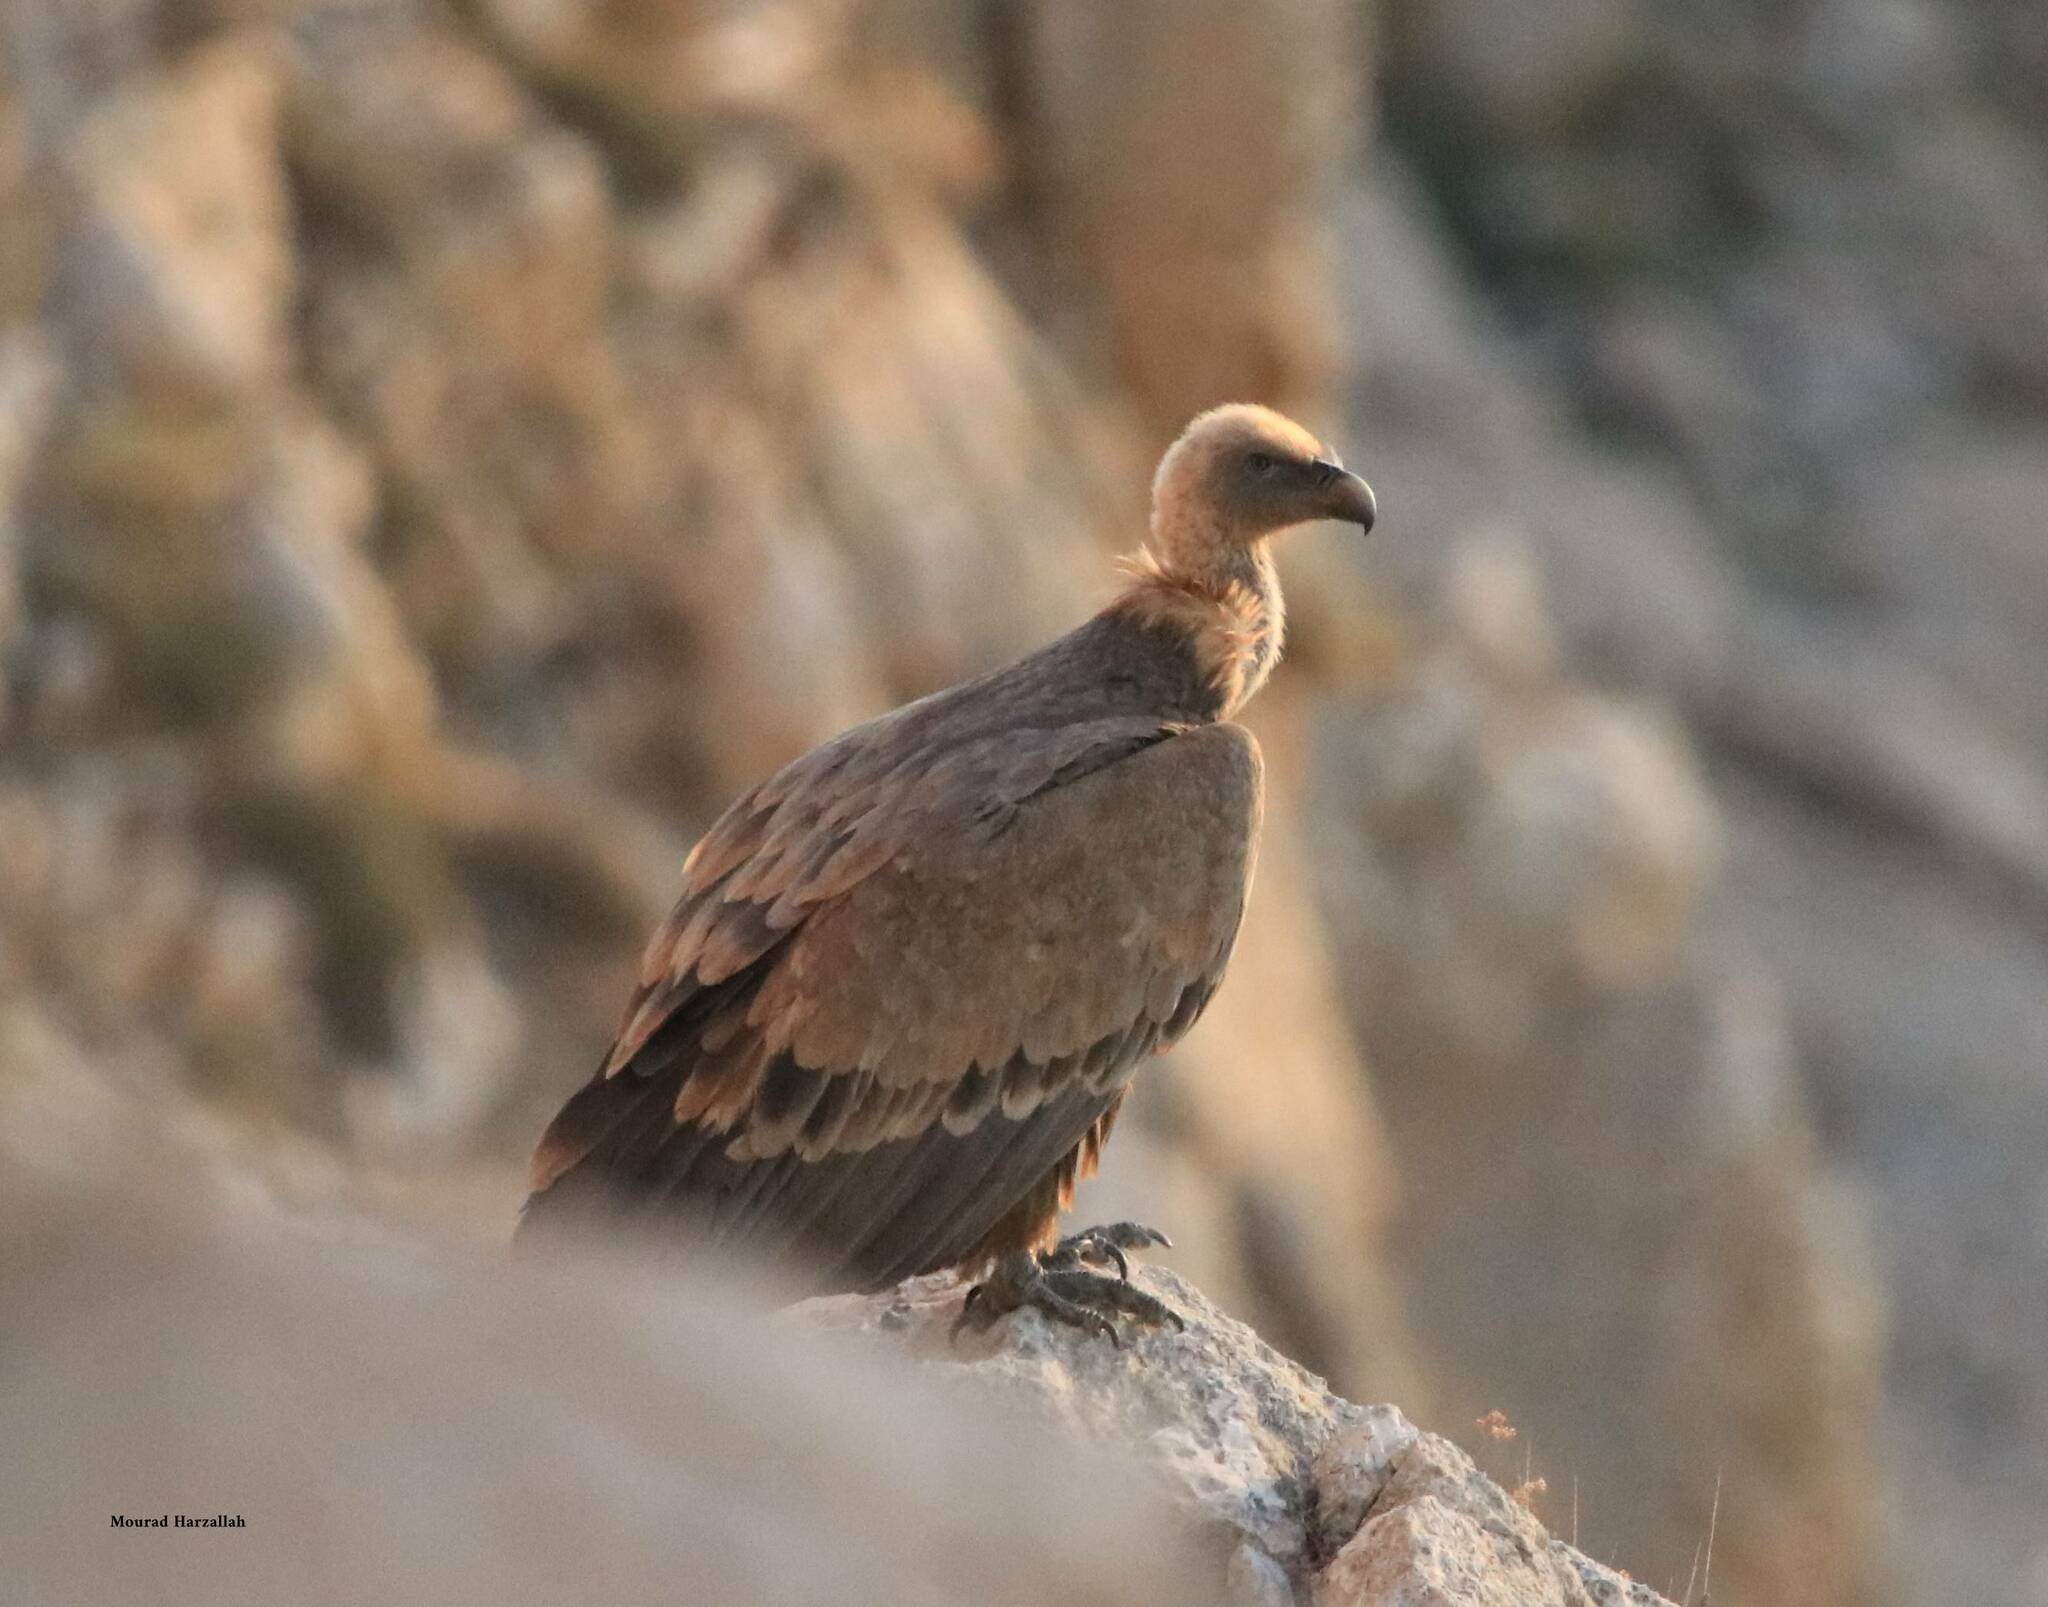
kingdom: Animalia
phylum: Chordata
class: Aves
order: Accipitriformes
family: Accipitridae
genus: Gyps
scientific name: Gyps fulvus
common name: Griffon vulture
